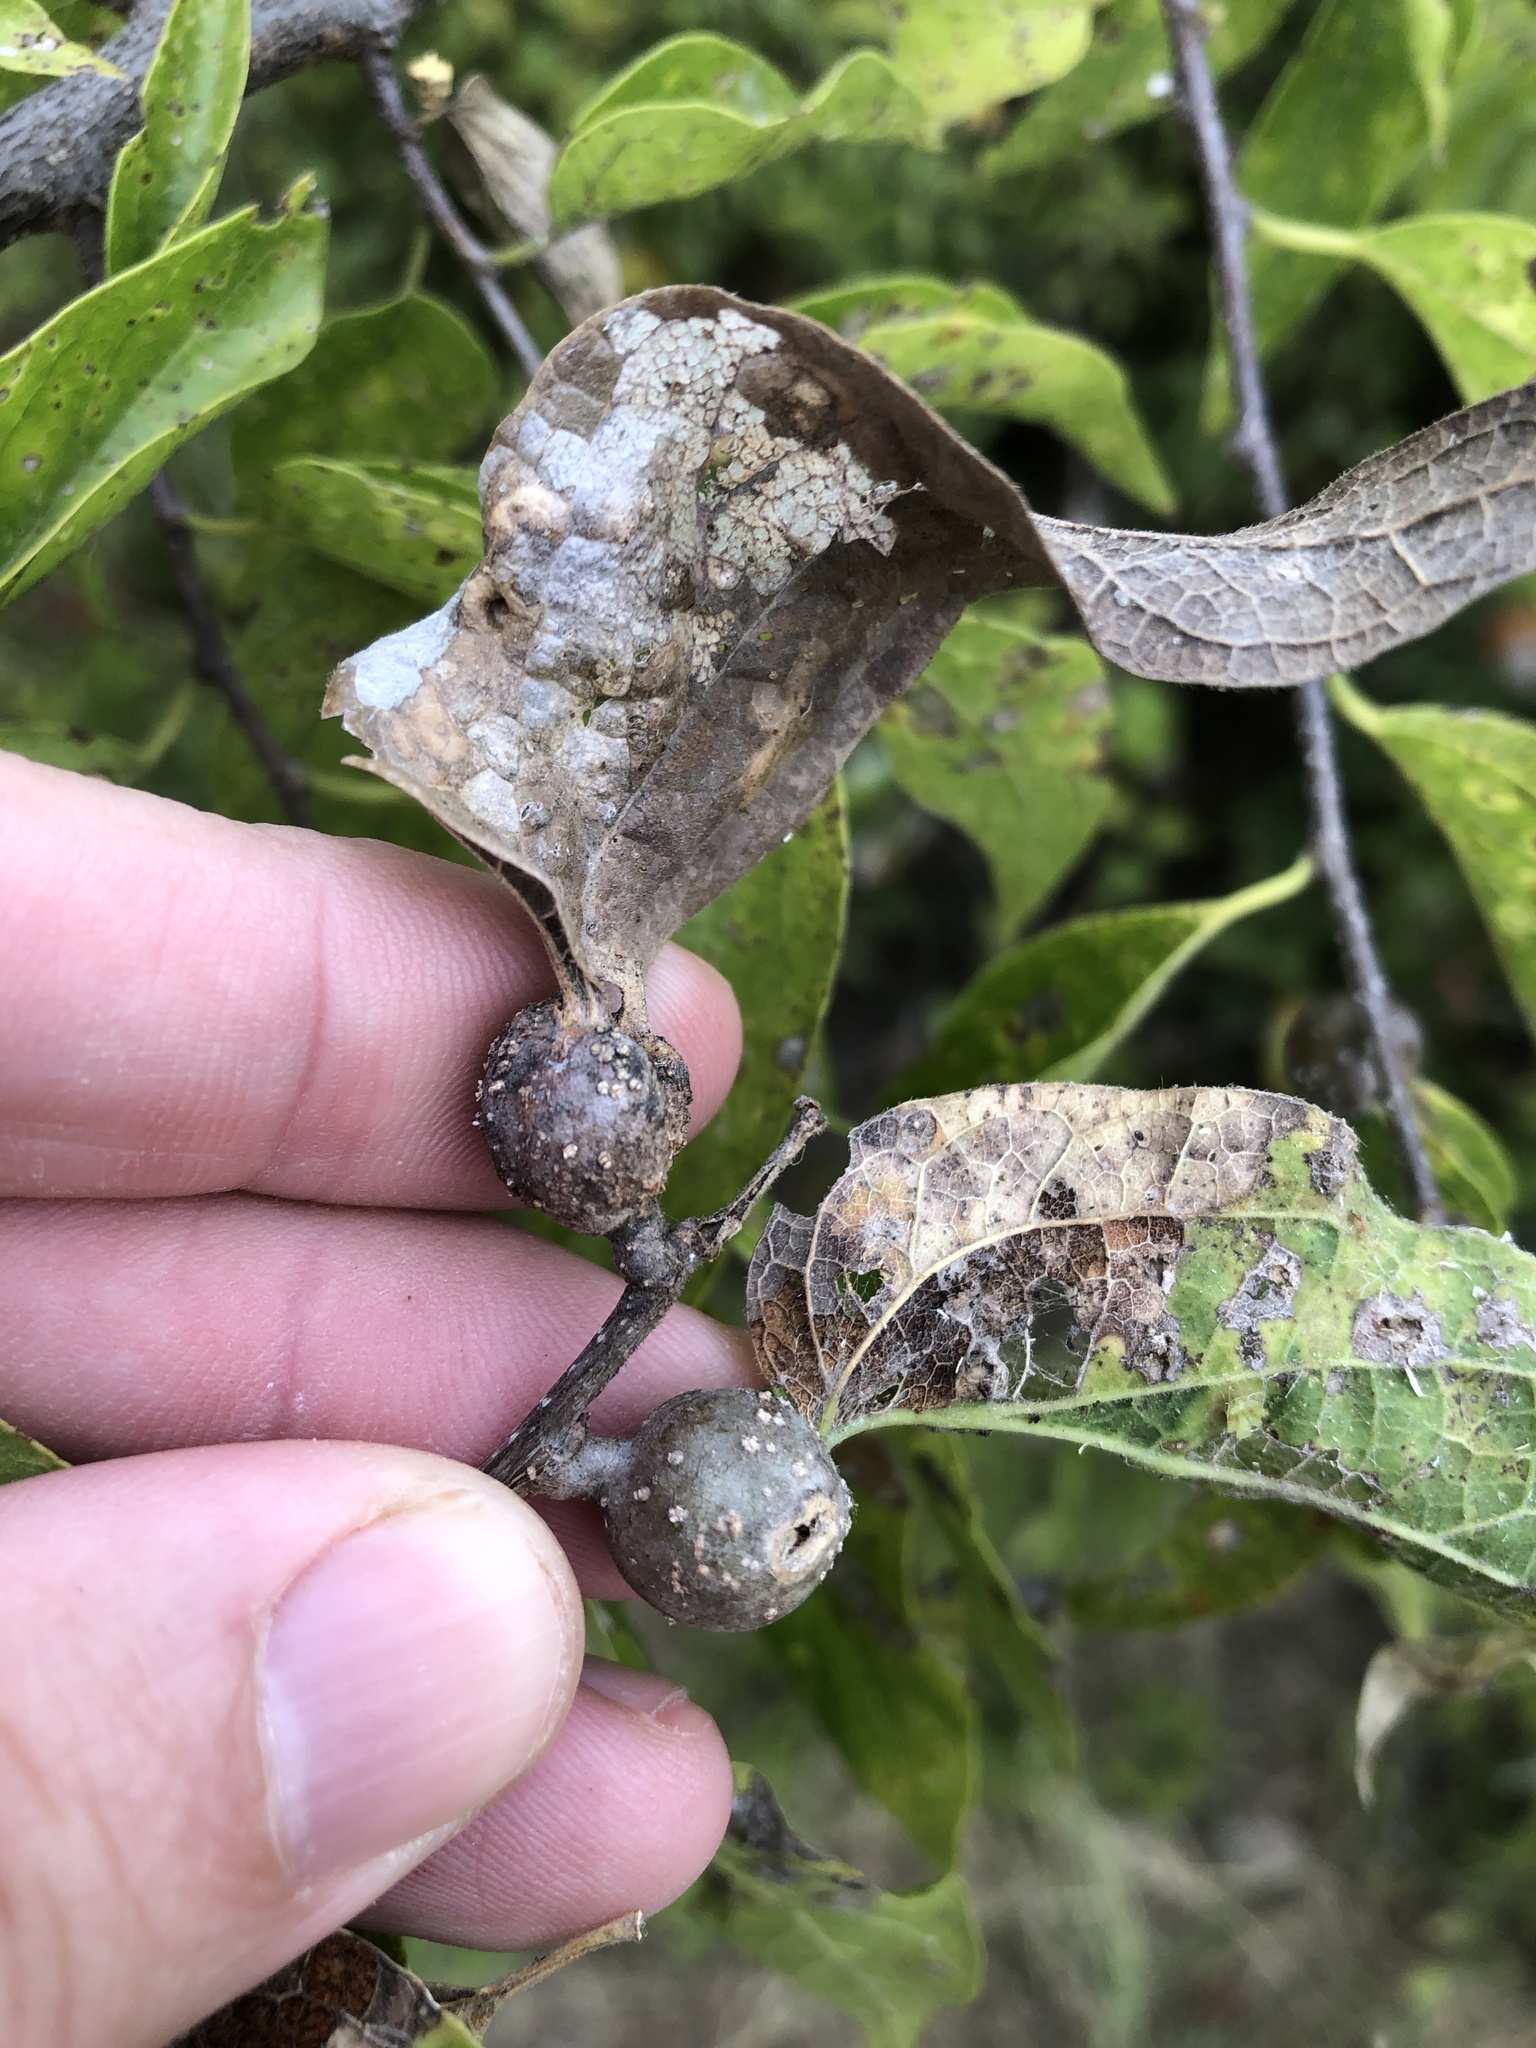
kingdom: Animalia
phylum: Arthropoda
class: Insecta
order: Hemiptera
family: Aphalaridae
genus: Pachypsylla
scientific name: Pachypsylla venusta
